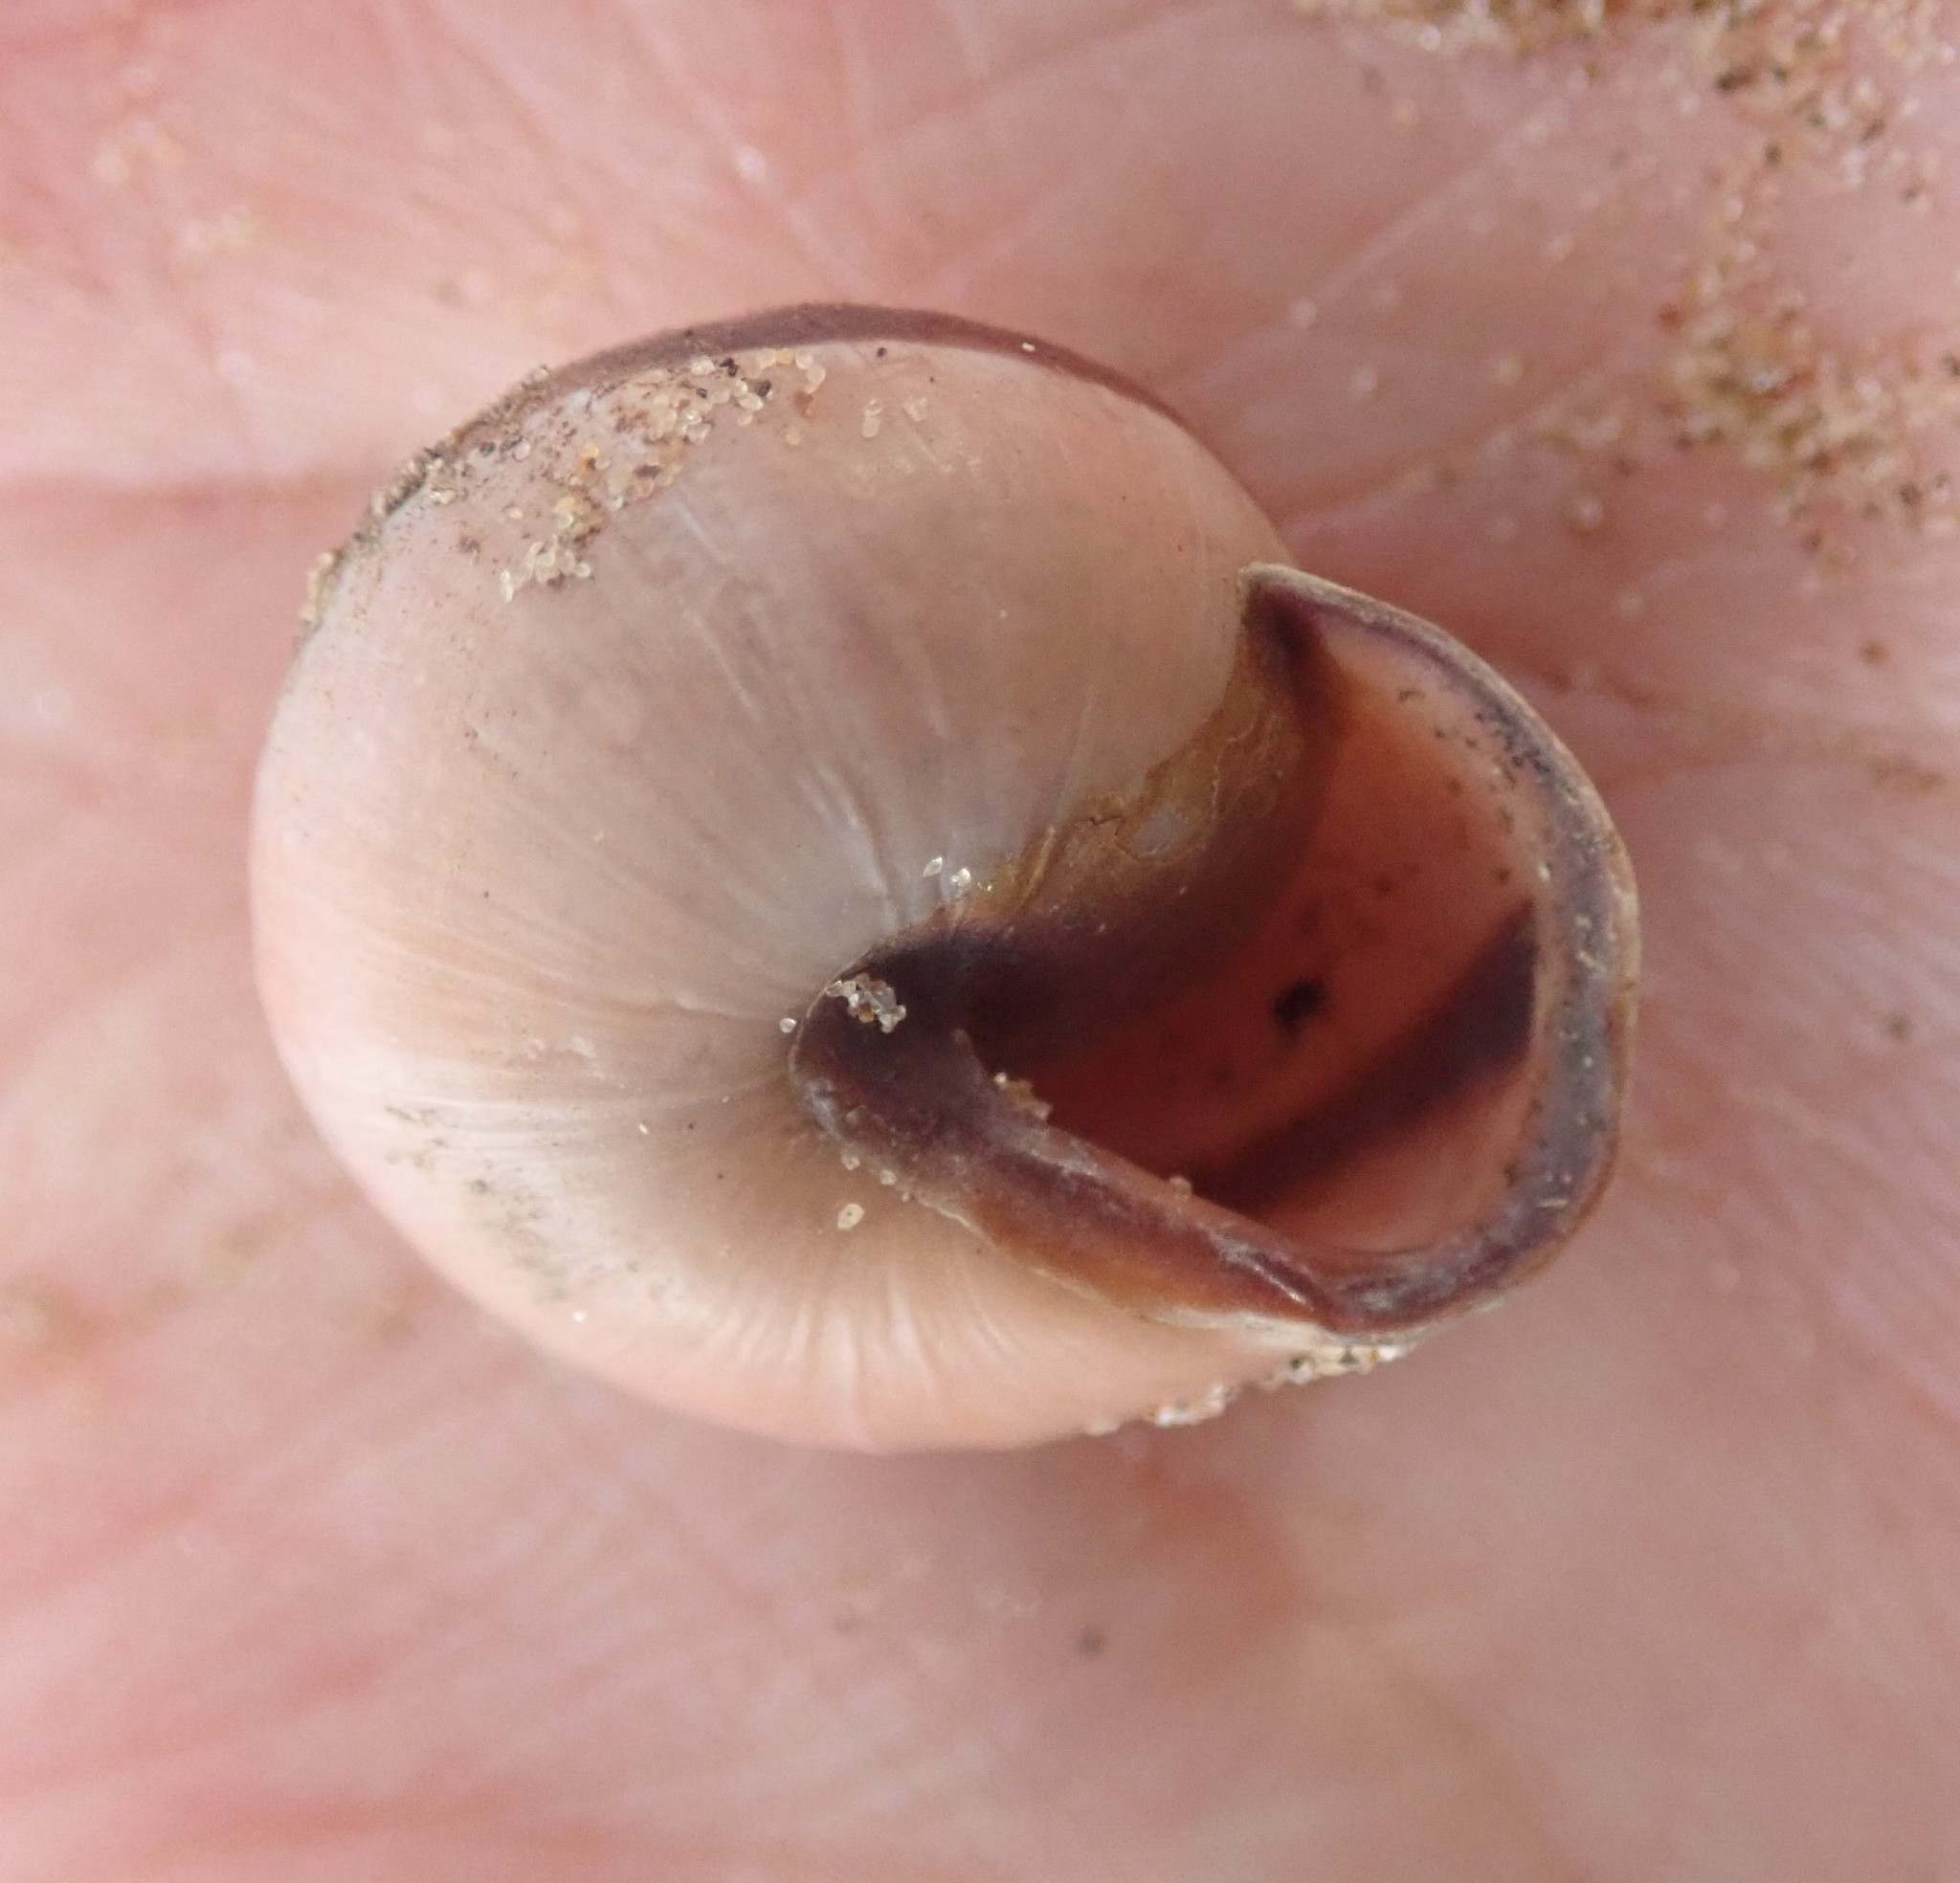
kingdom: Animalia
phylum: Mollusca
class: Gastropoda
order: Stylommatophora
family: Helicidae
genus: Cepaea
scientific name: Cepaea nemoralis
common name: Grovesnail
